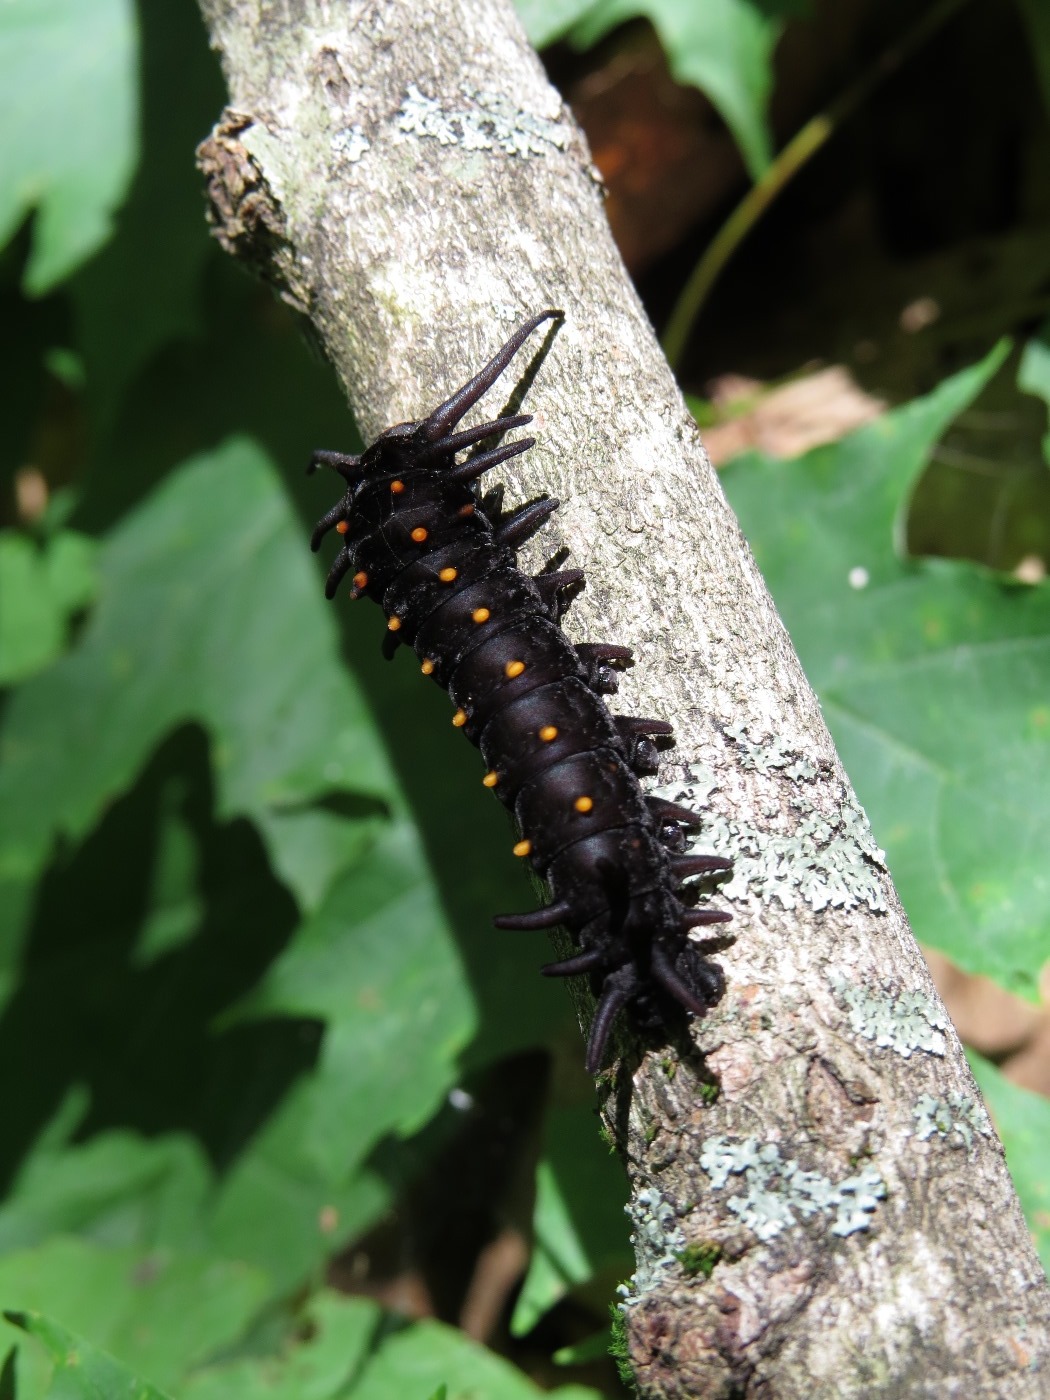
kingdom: Animalia
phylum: Arthropoda
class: Insecta
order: Lepidoptera
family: Papilionidae
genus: Battus
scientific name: Battus philenor
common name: Pipevine swallowtail
